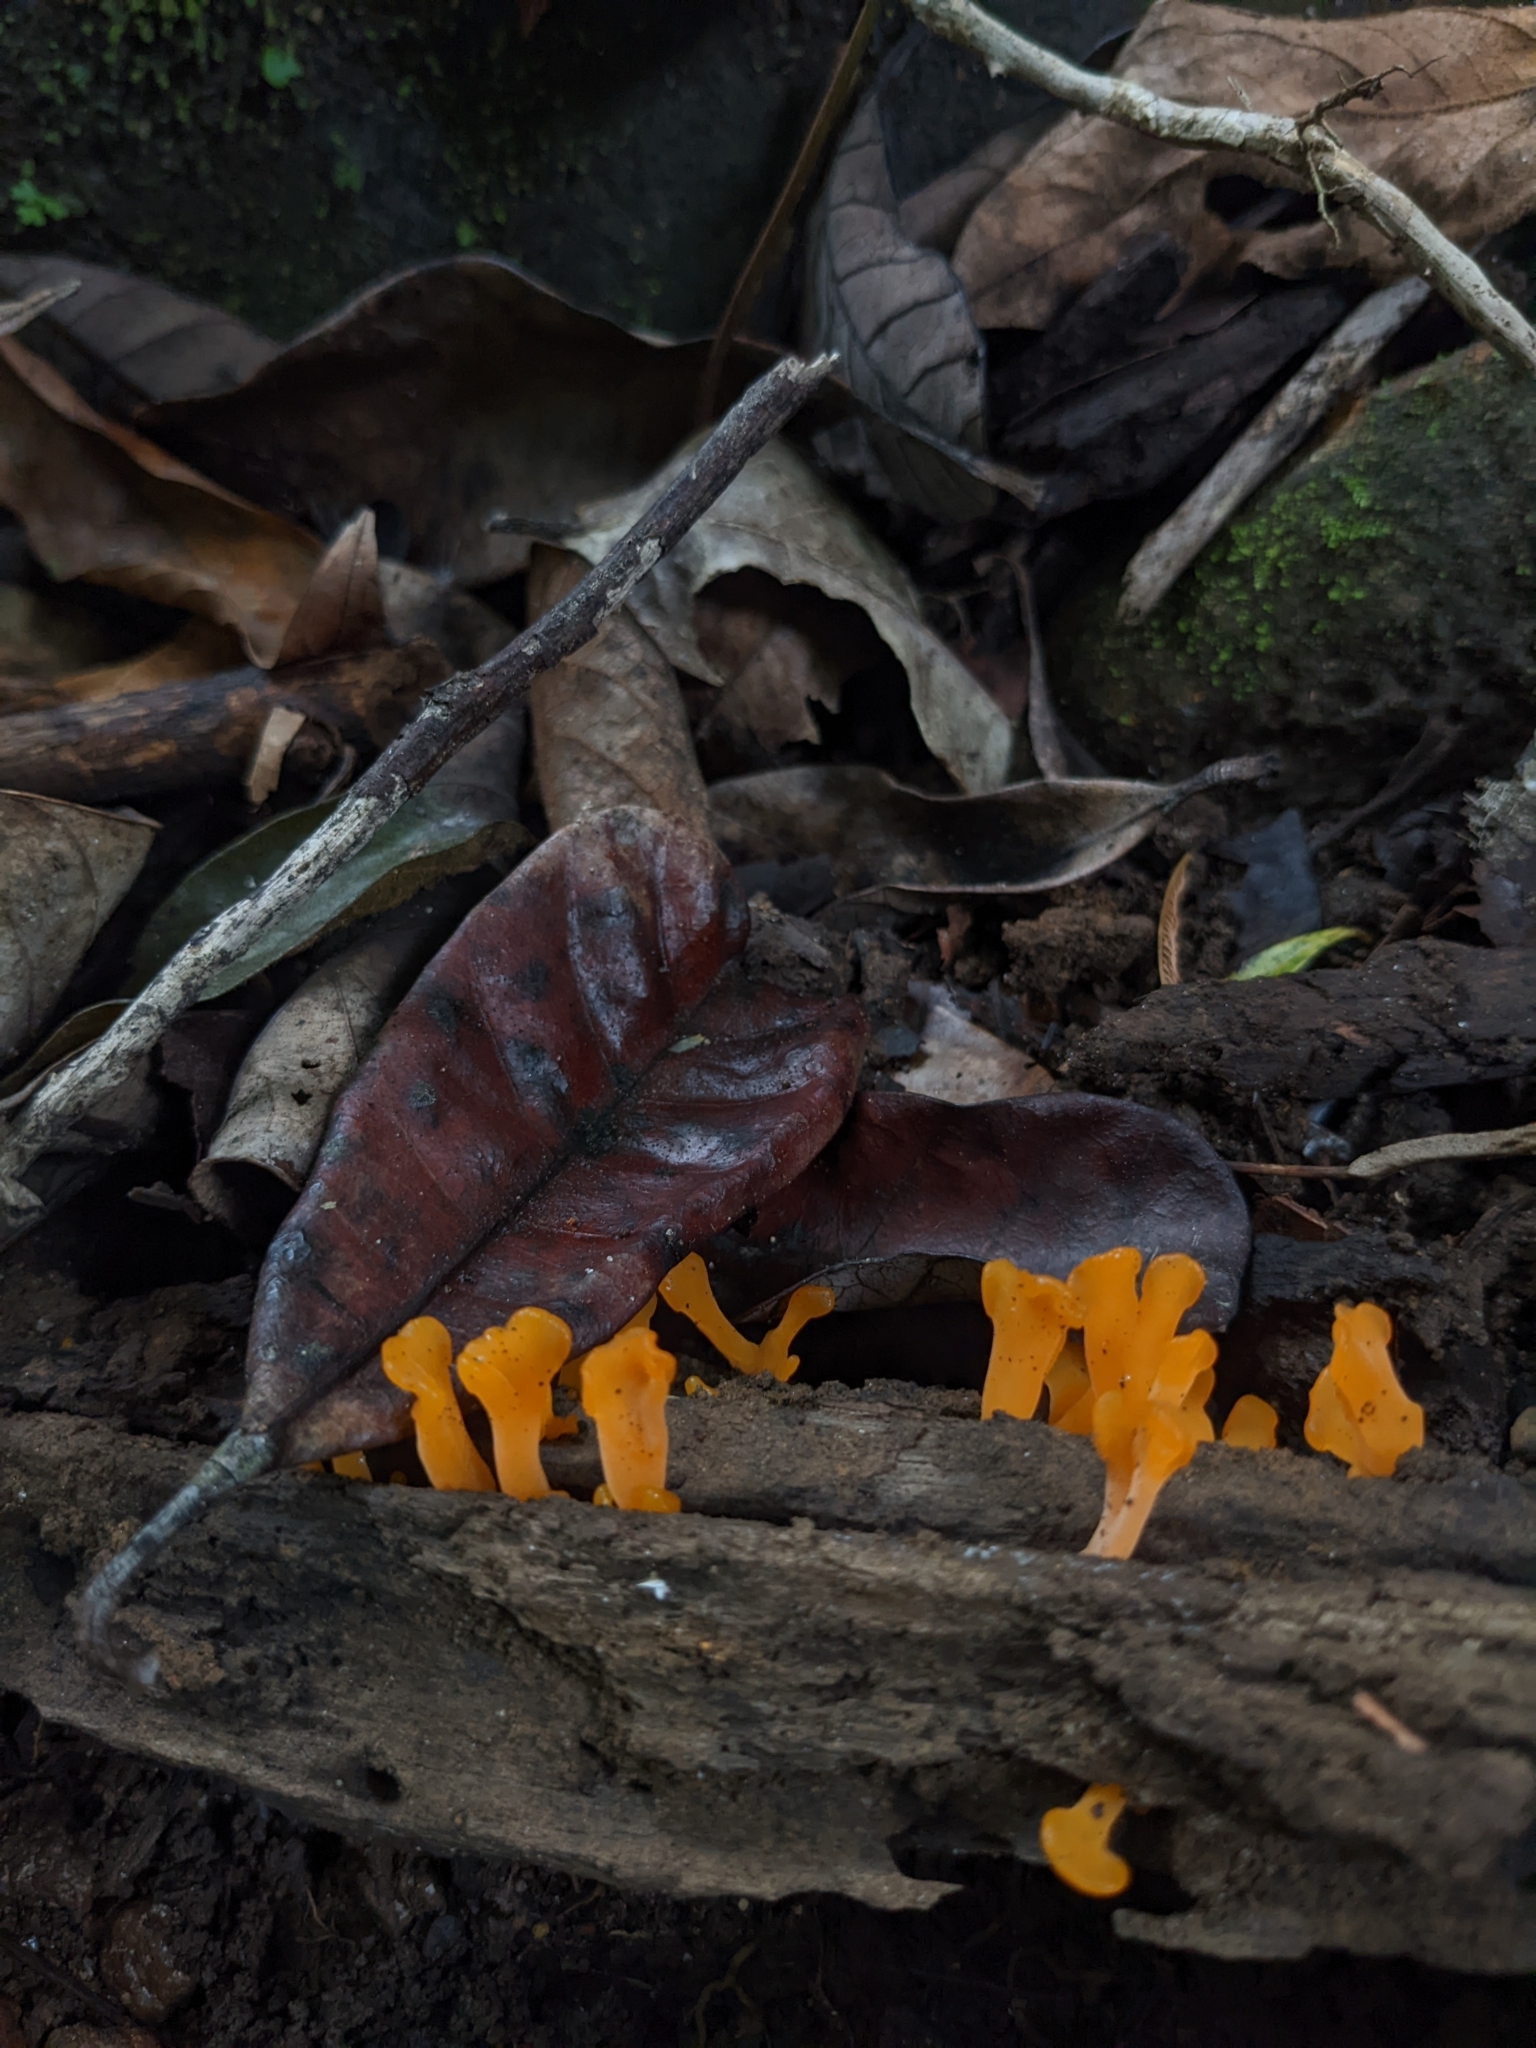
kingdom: Fungi
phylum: Basidiomycota
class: Dacrymycetes
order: Dacrymycetales
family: Dacrymycetaceae
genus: Dacrymyces
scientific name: Dacrymyces spathularius
